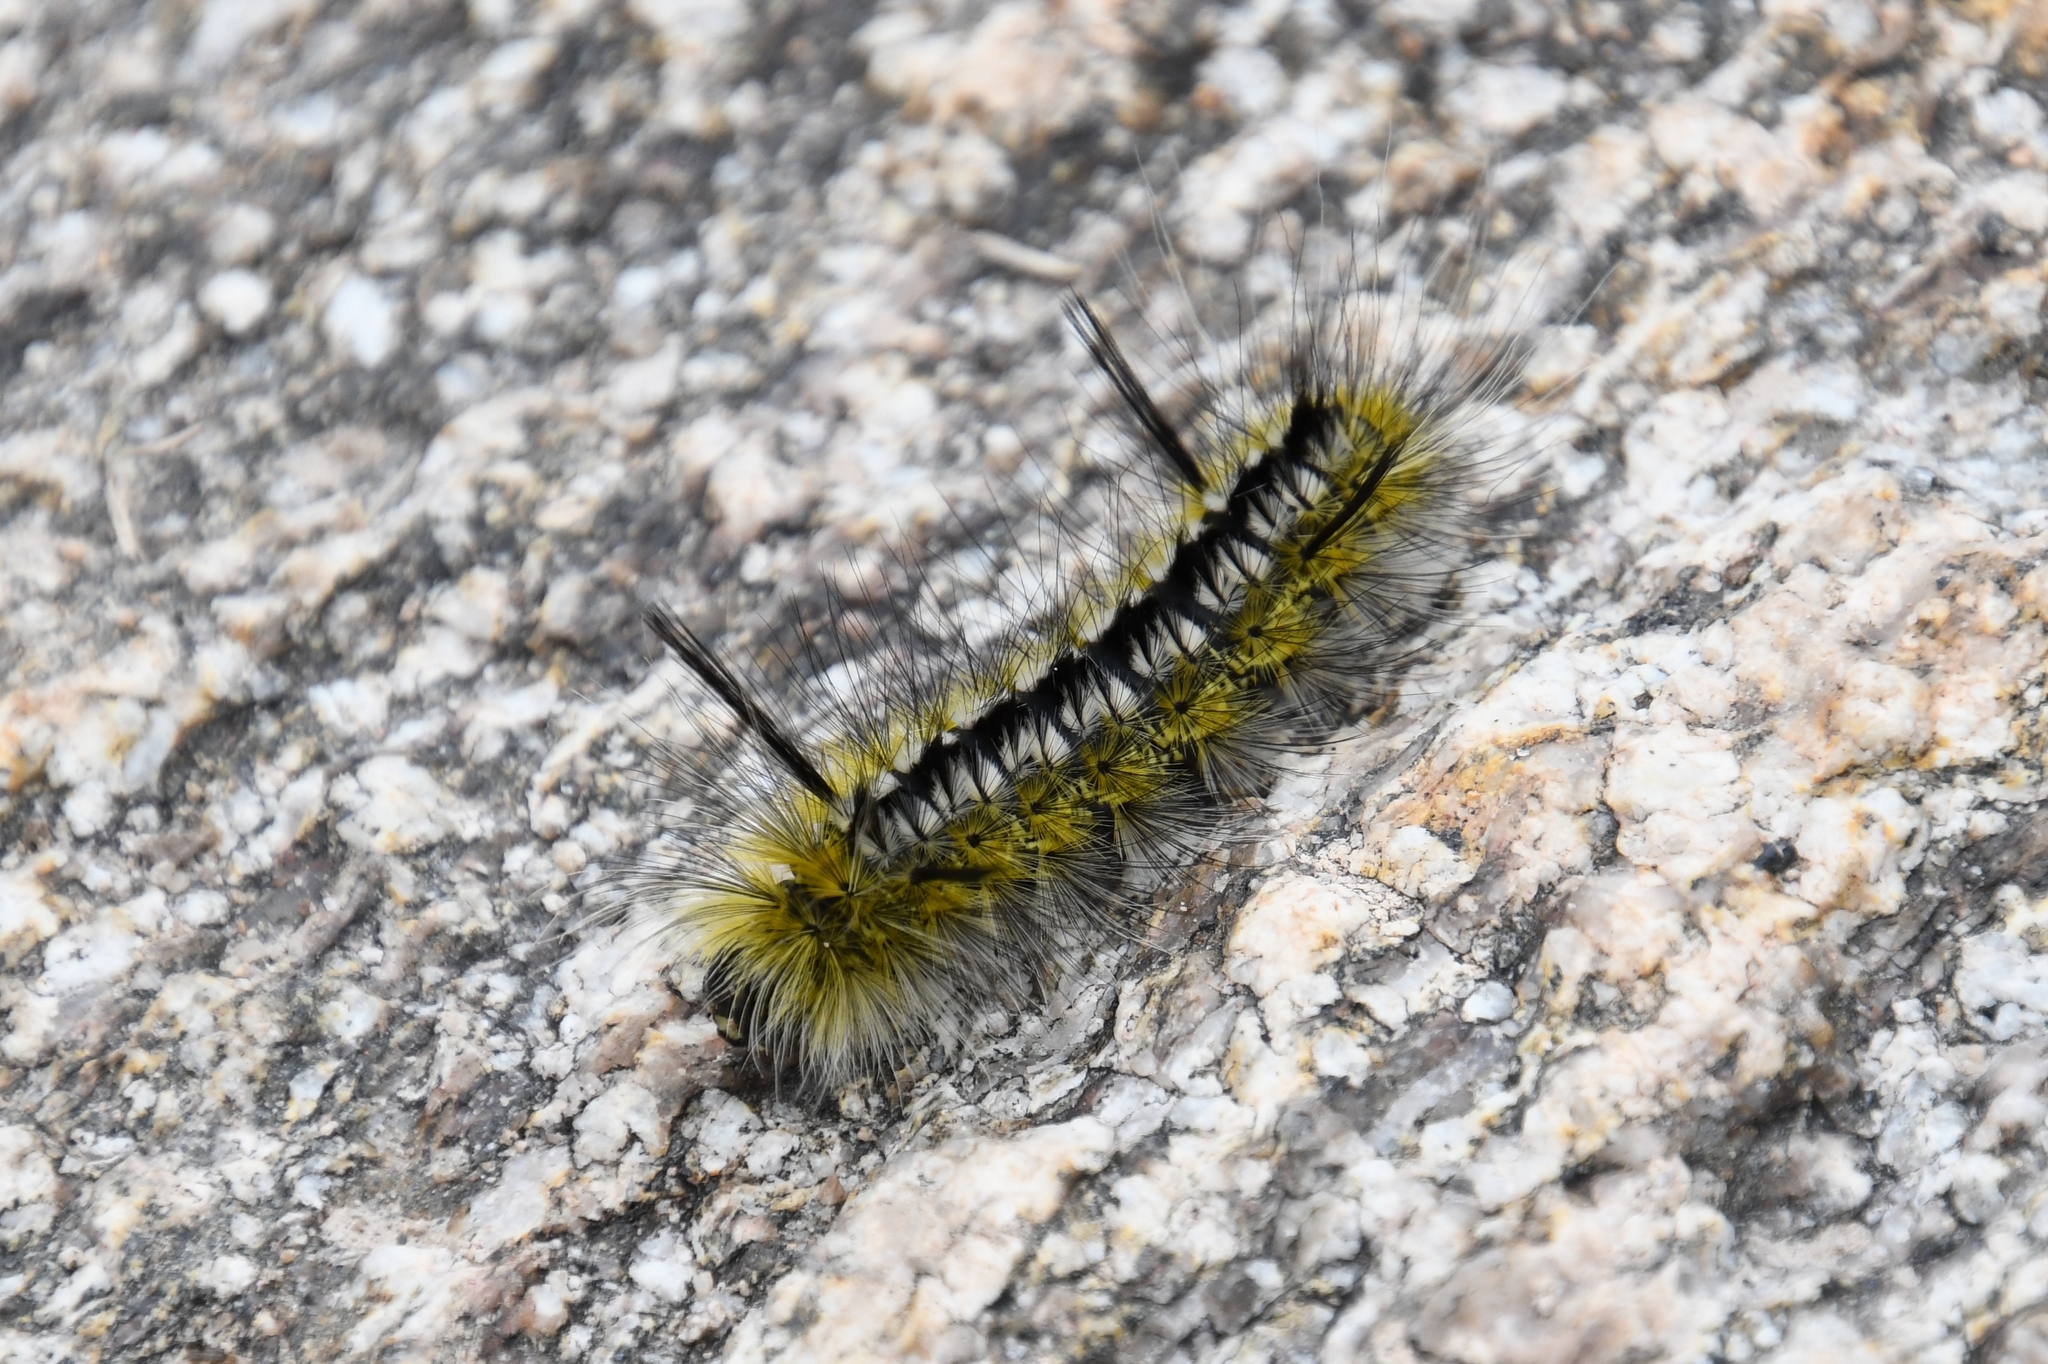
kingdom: Animalia
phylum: Arthropoda
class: Insecta
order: Lepidoptera
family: Erebidae
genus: Lophocampa
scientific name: Lophocampa mixta
